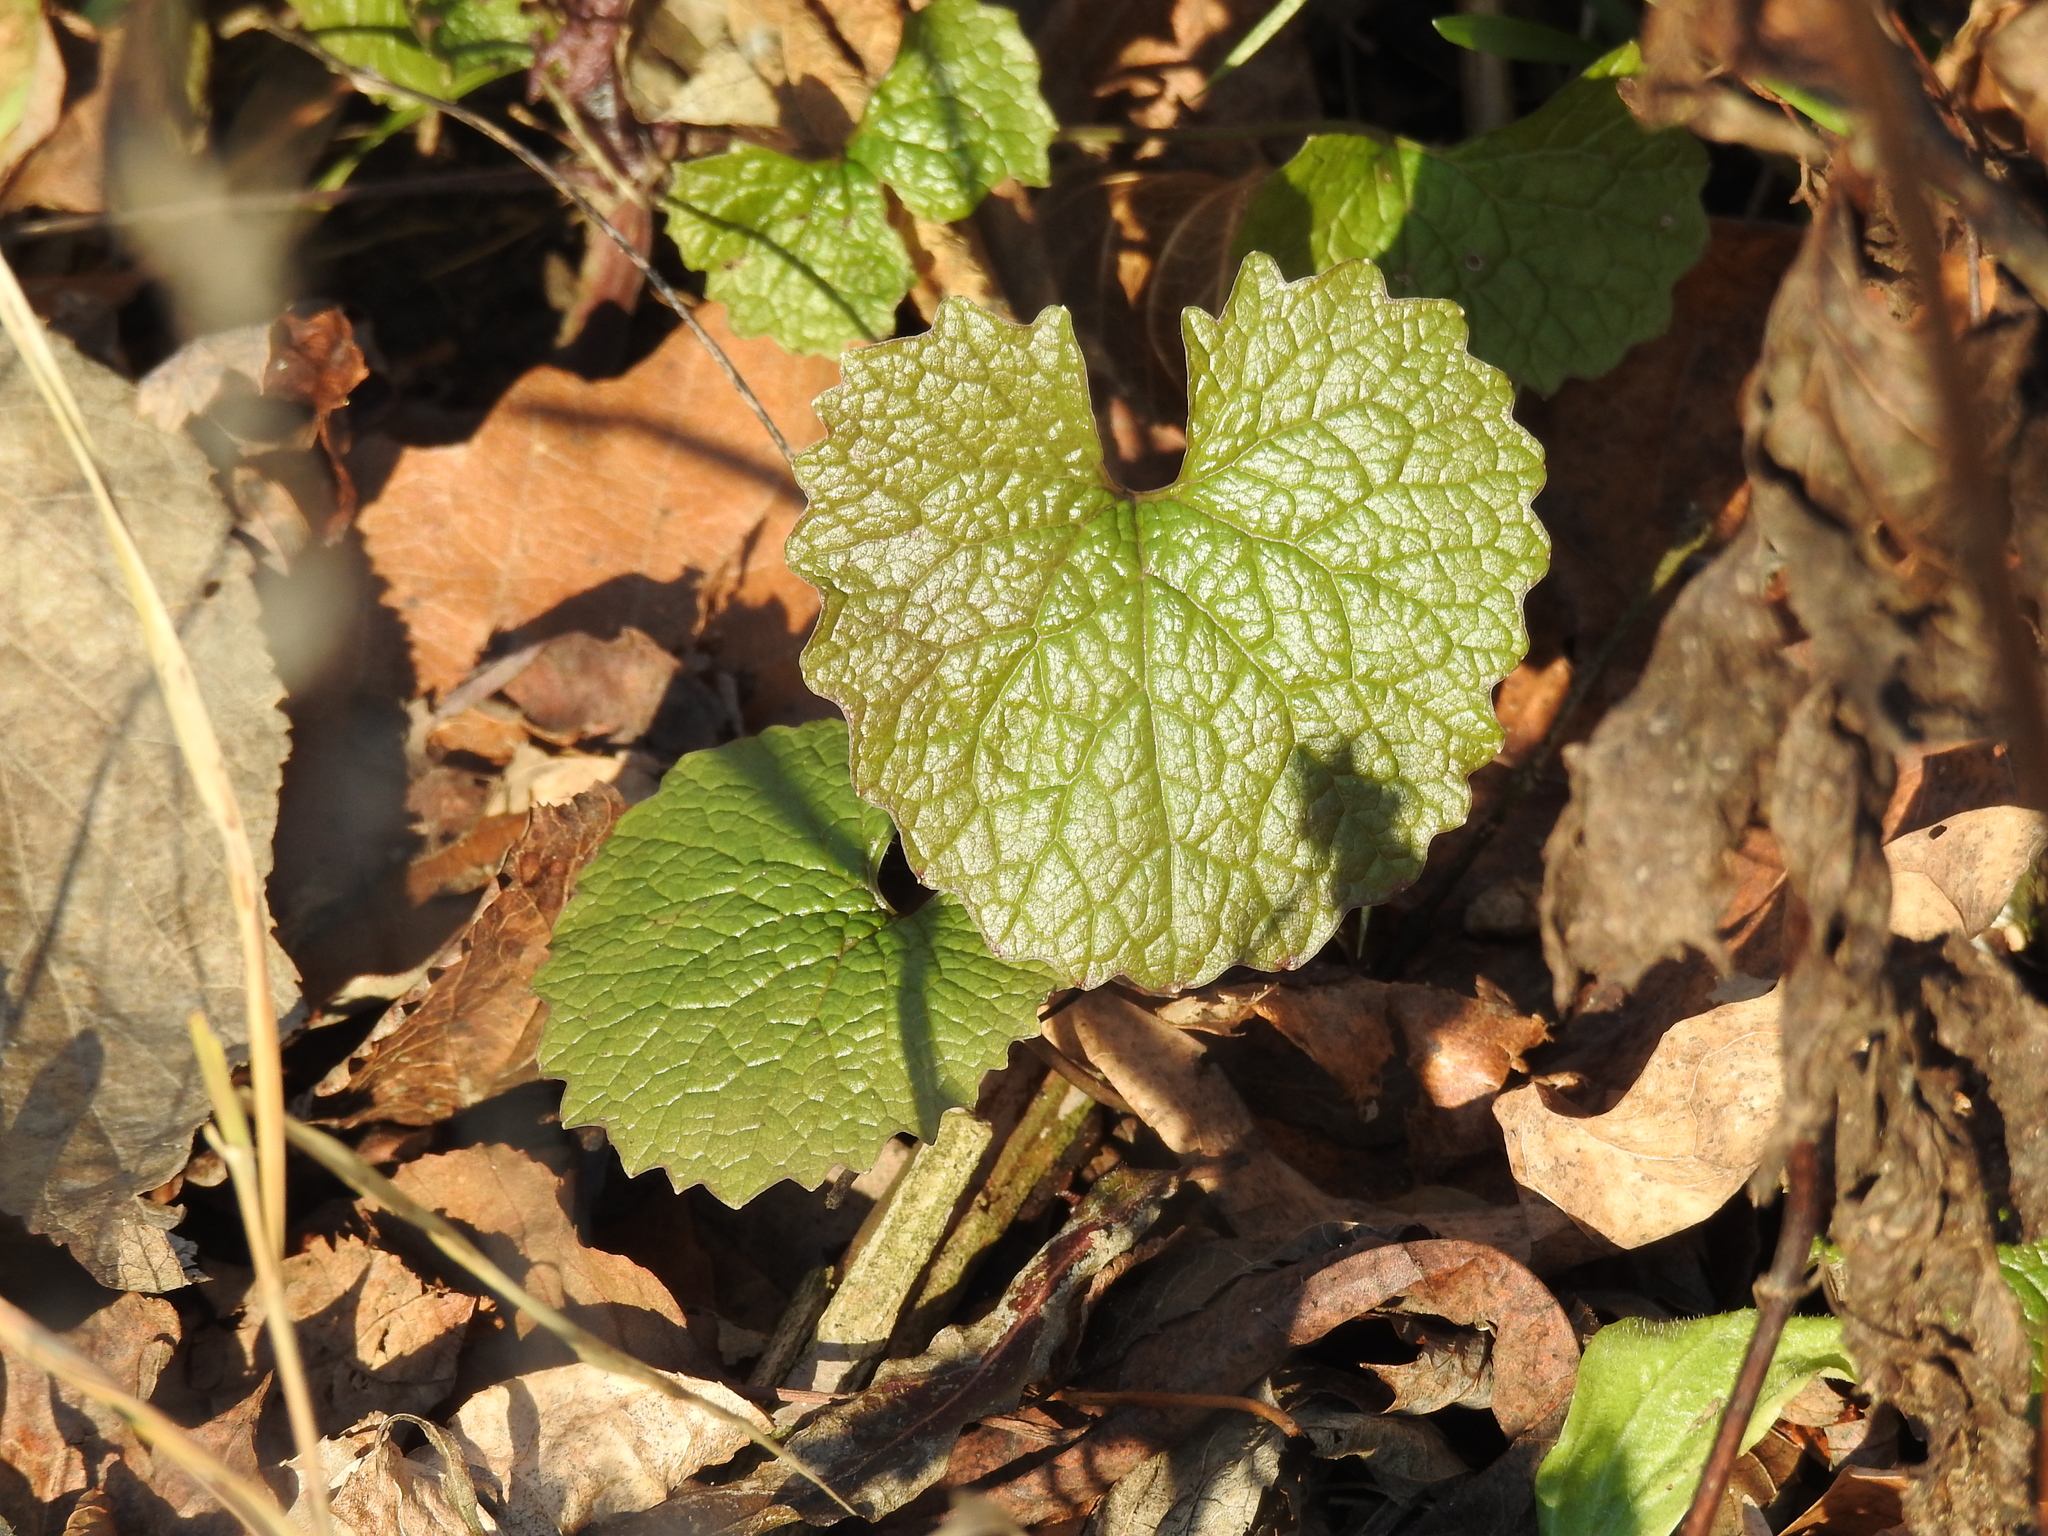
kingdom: Plantae
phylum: Tracheophyta
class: Magnoliopsida
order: Brassicales
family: Brassicaceae
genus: Alliaria
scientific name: Alliaria petiolata
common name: Garlic mustard
